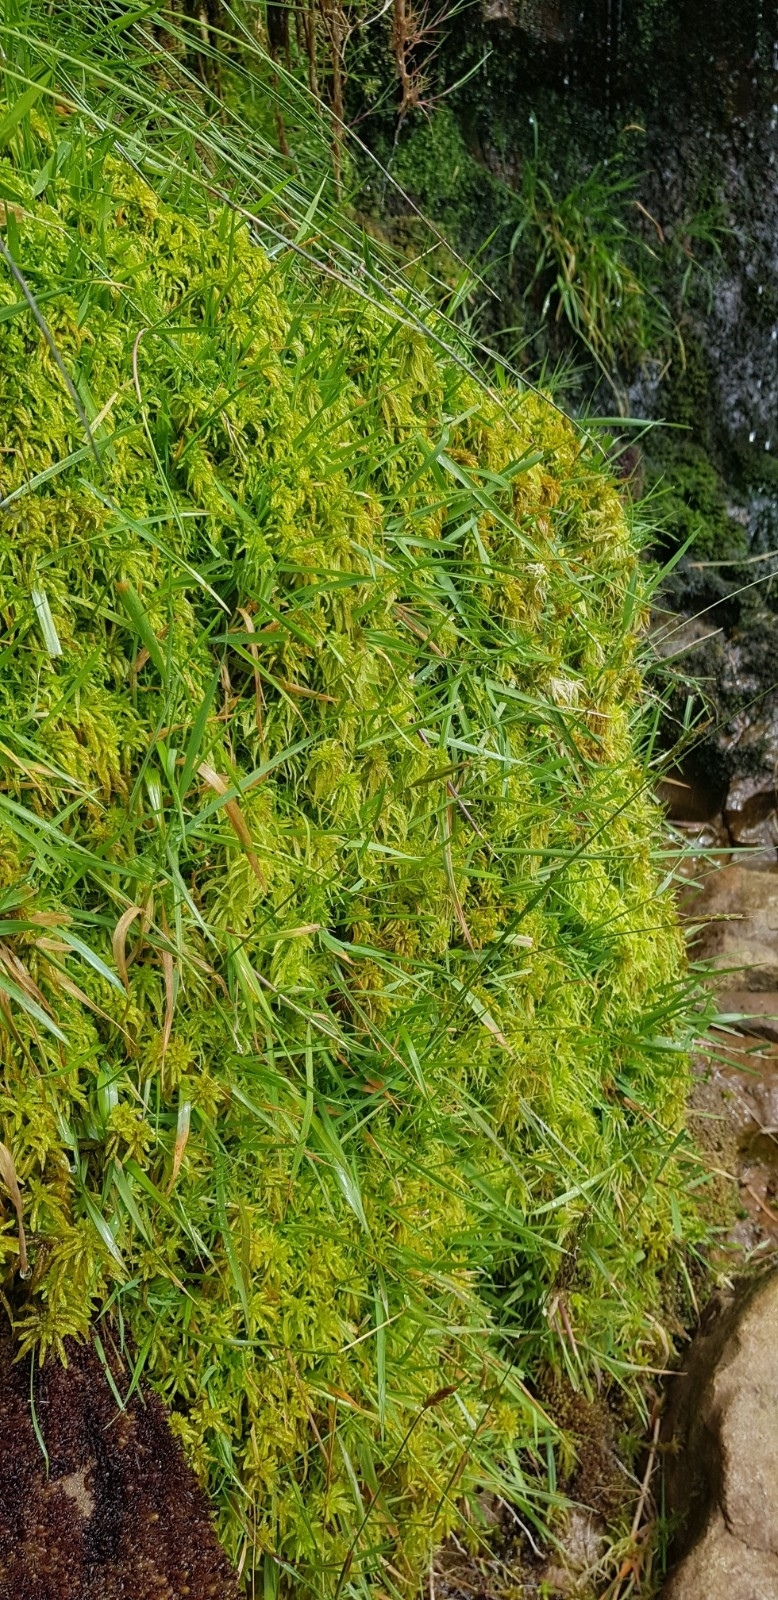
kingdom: Plantae
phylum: Bryophyta
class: Sphagnopsida
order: Sphagnales
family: Sphagnaceae
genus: Sphagnum
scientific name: Sphagnum inundatum
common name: Lesser cow-horn bog-moss
